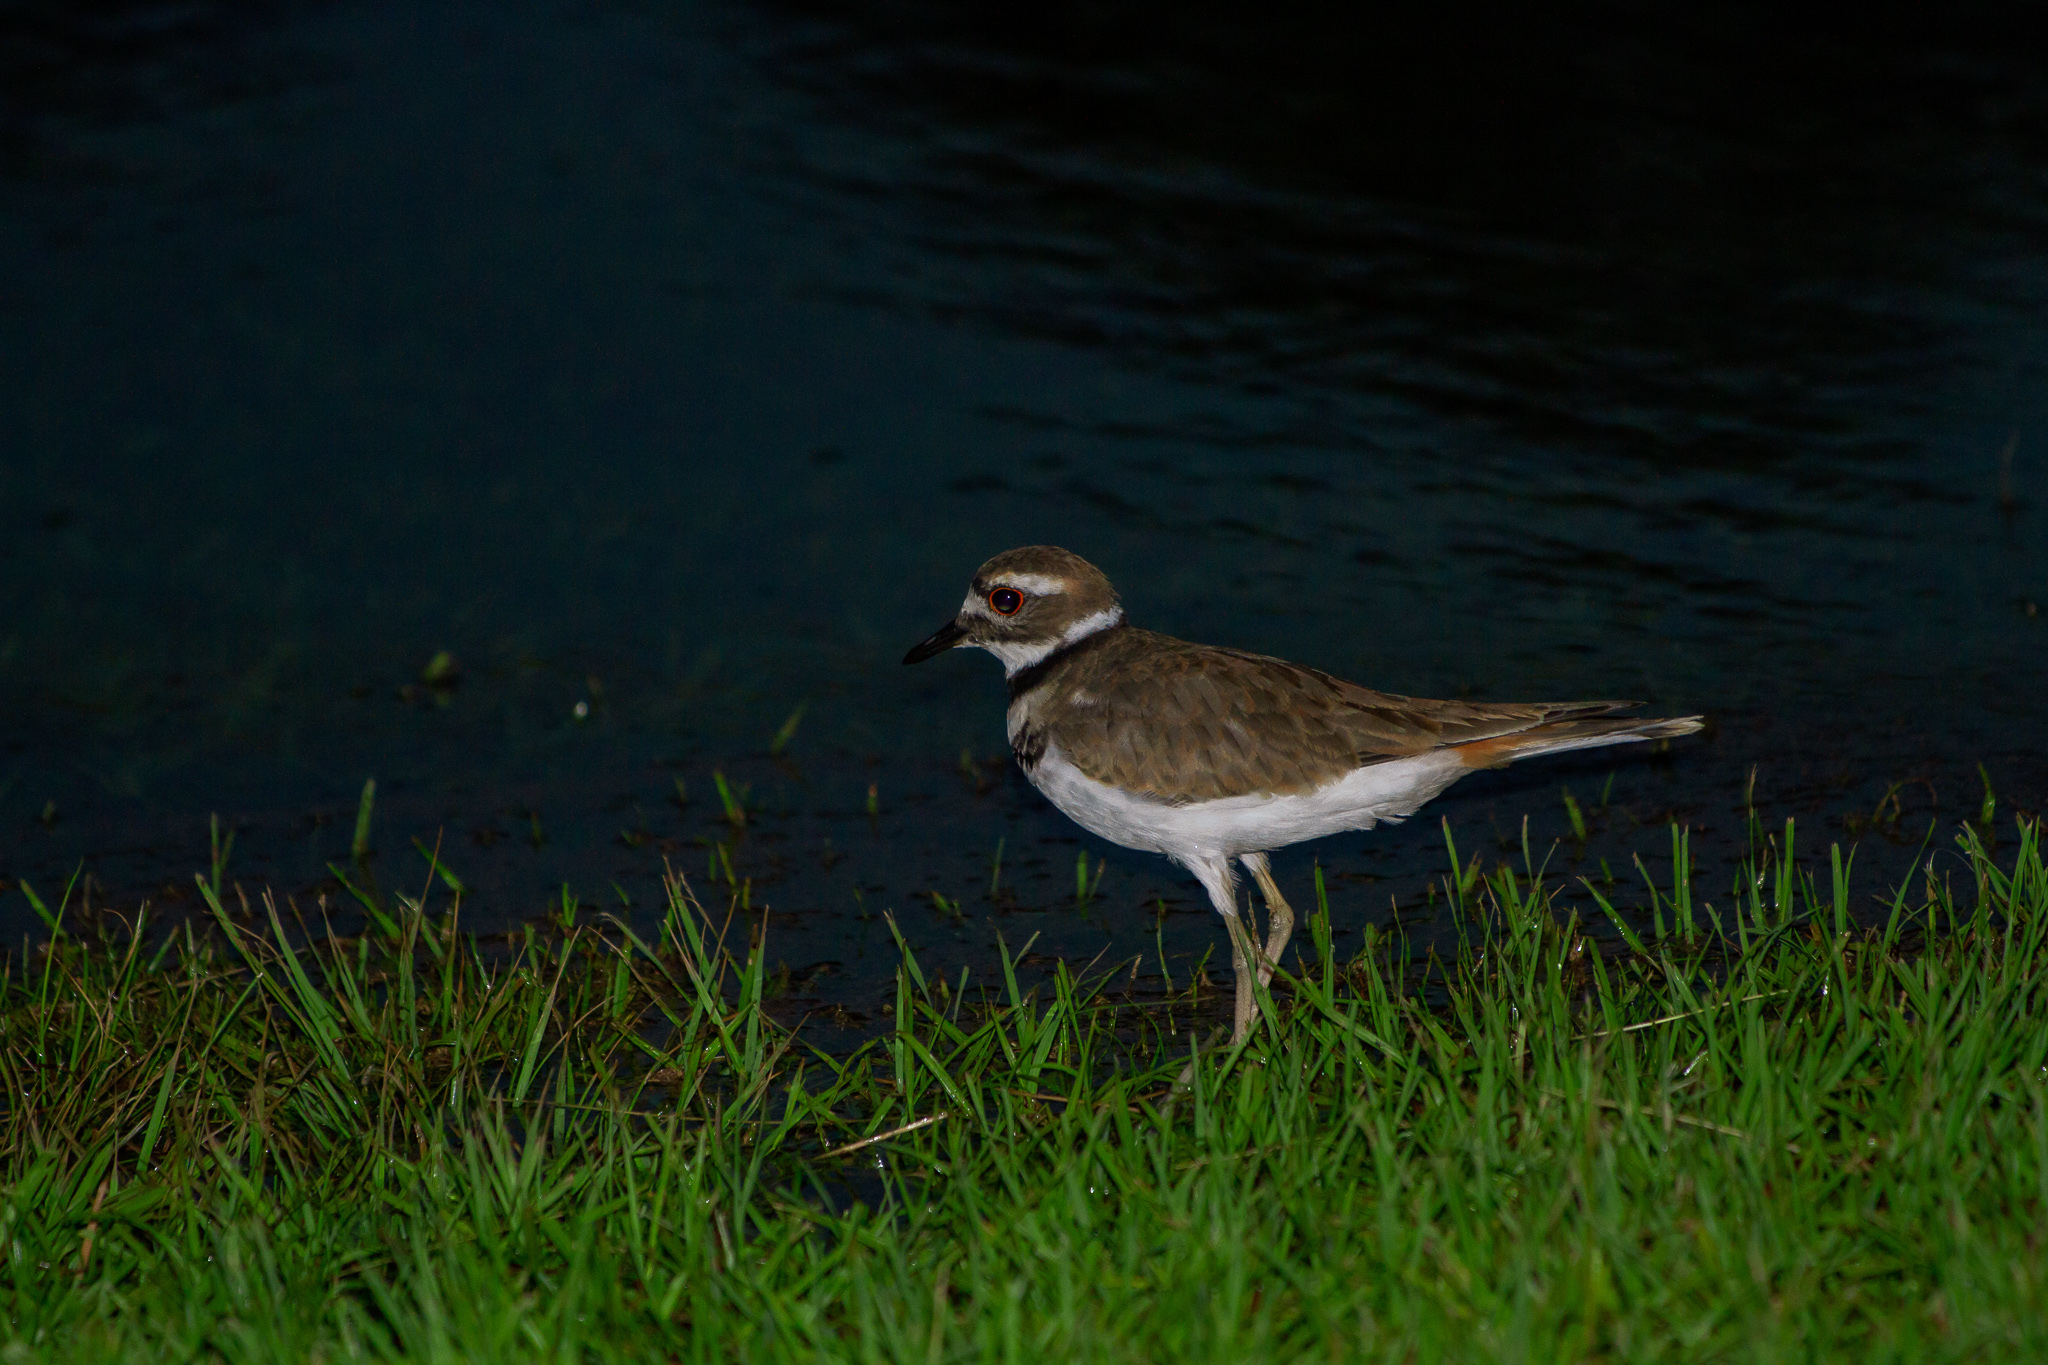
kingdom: Animalia
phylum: Chordata
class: Aves
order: Charadriiformes
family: Charadriidae
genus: Charadrius
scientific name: Charadrius vociferus
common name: Killdeer
